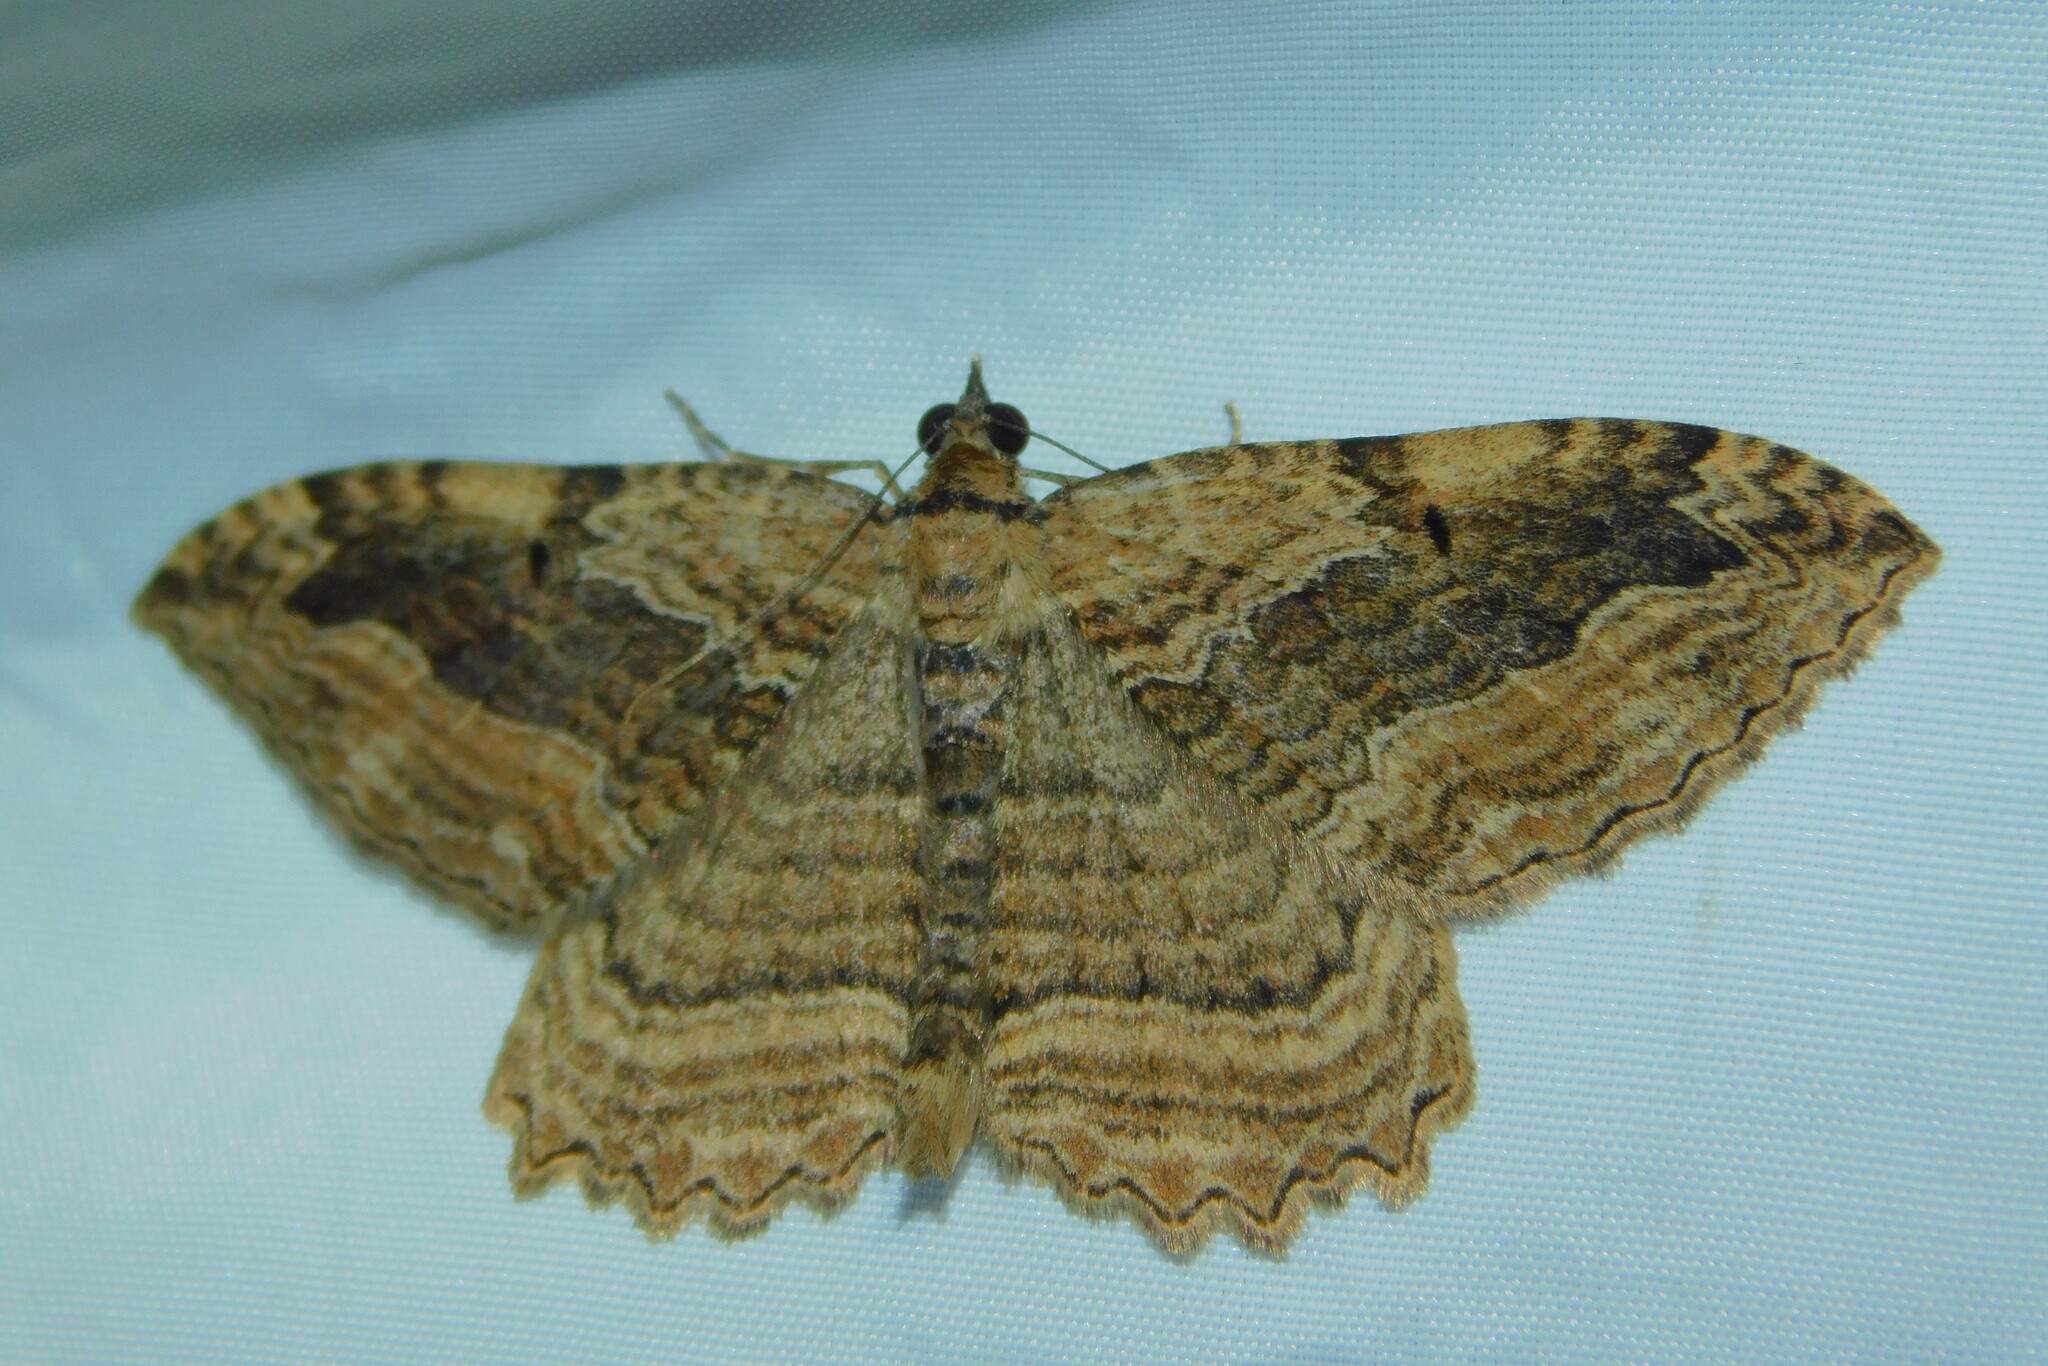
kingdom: Animalia
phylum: Arthropoda
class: Insecta
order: Lepidoptera
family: Geometridae
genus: Philereme
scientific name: Philereme transversata
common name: Dark umber
